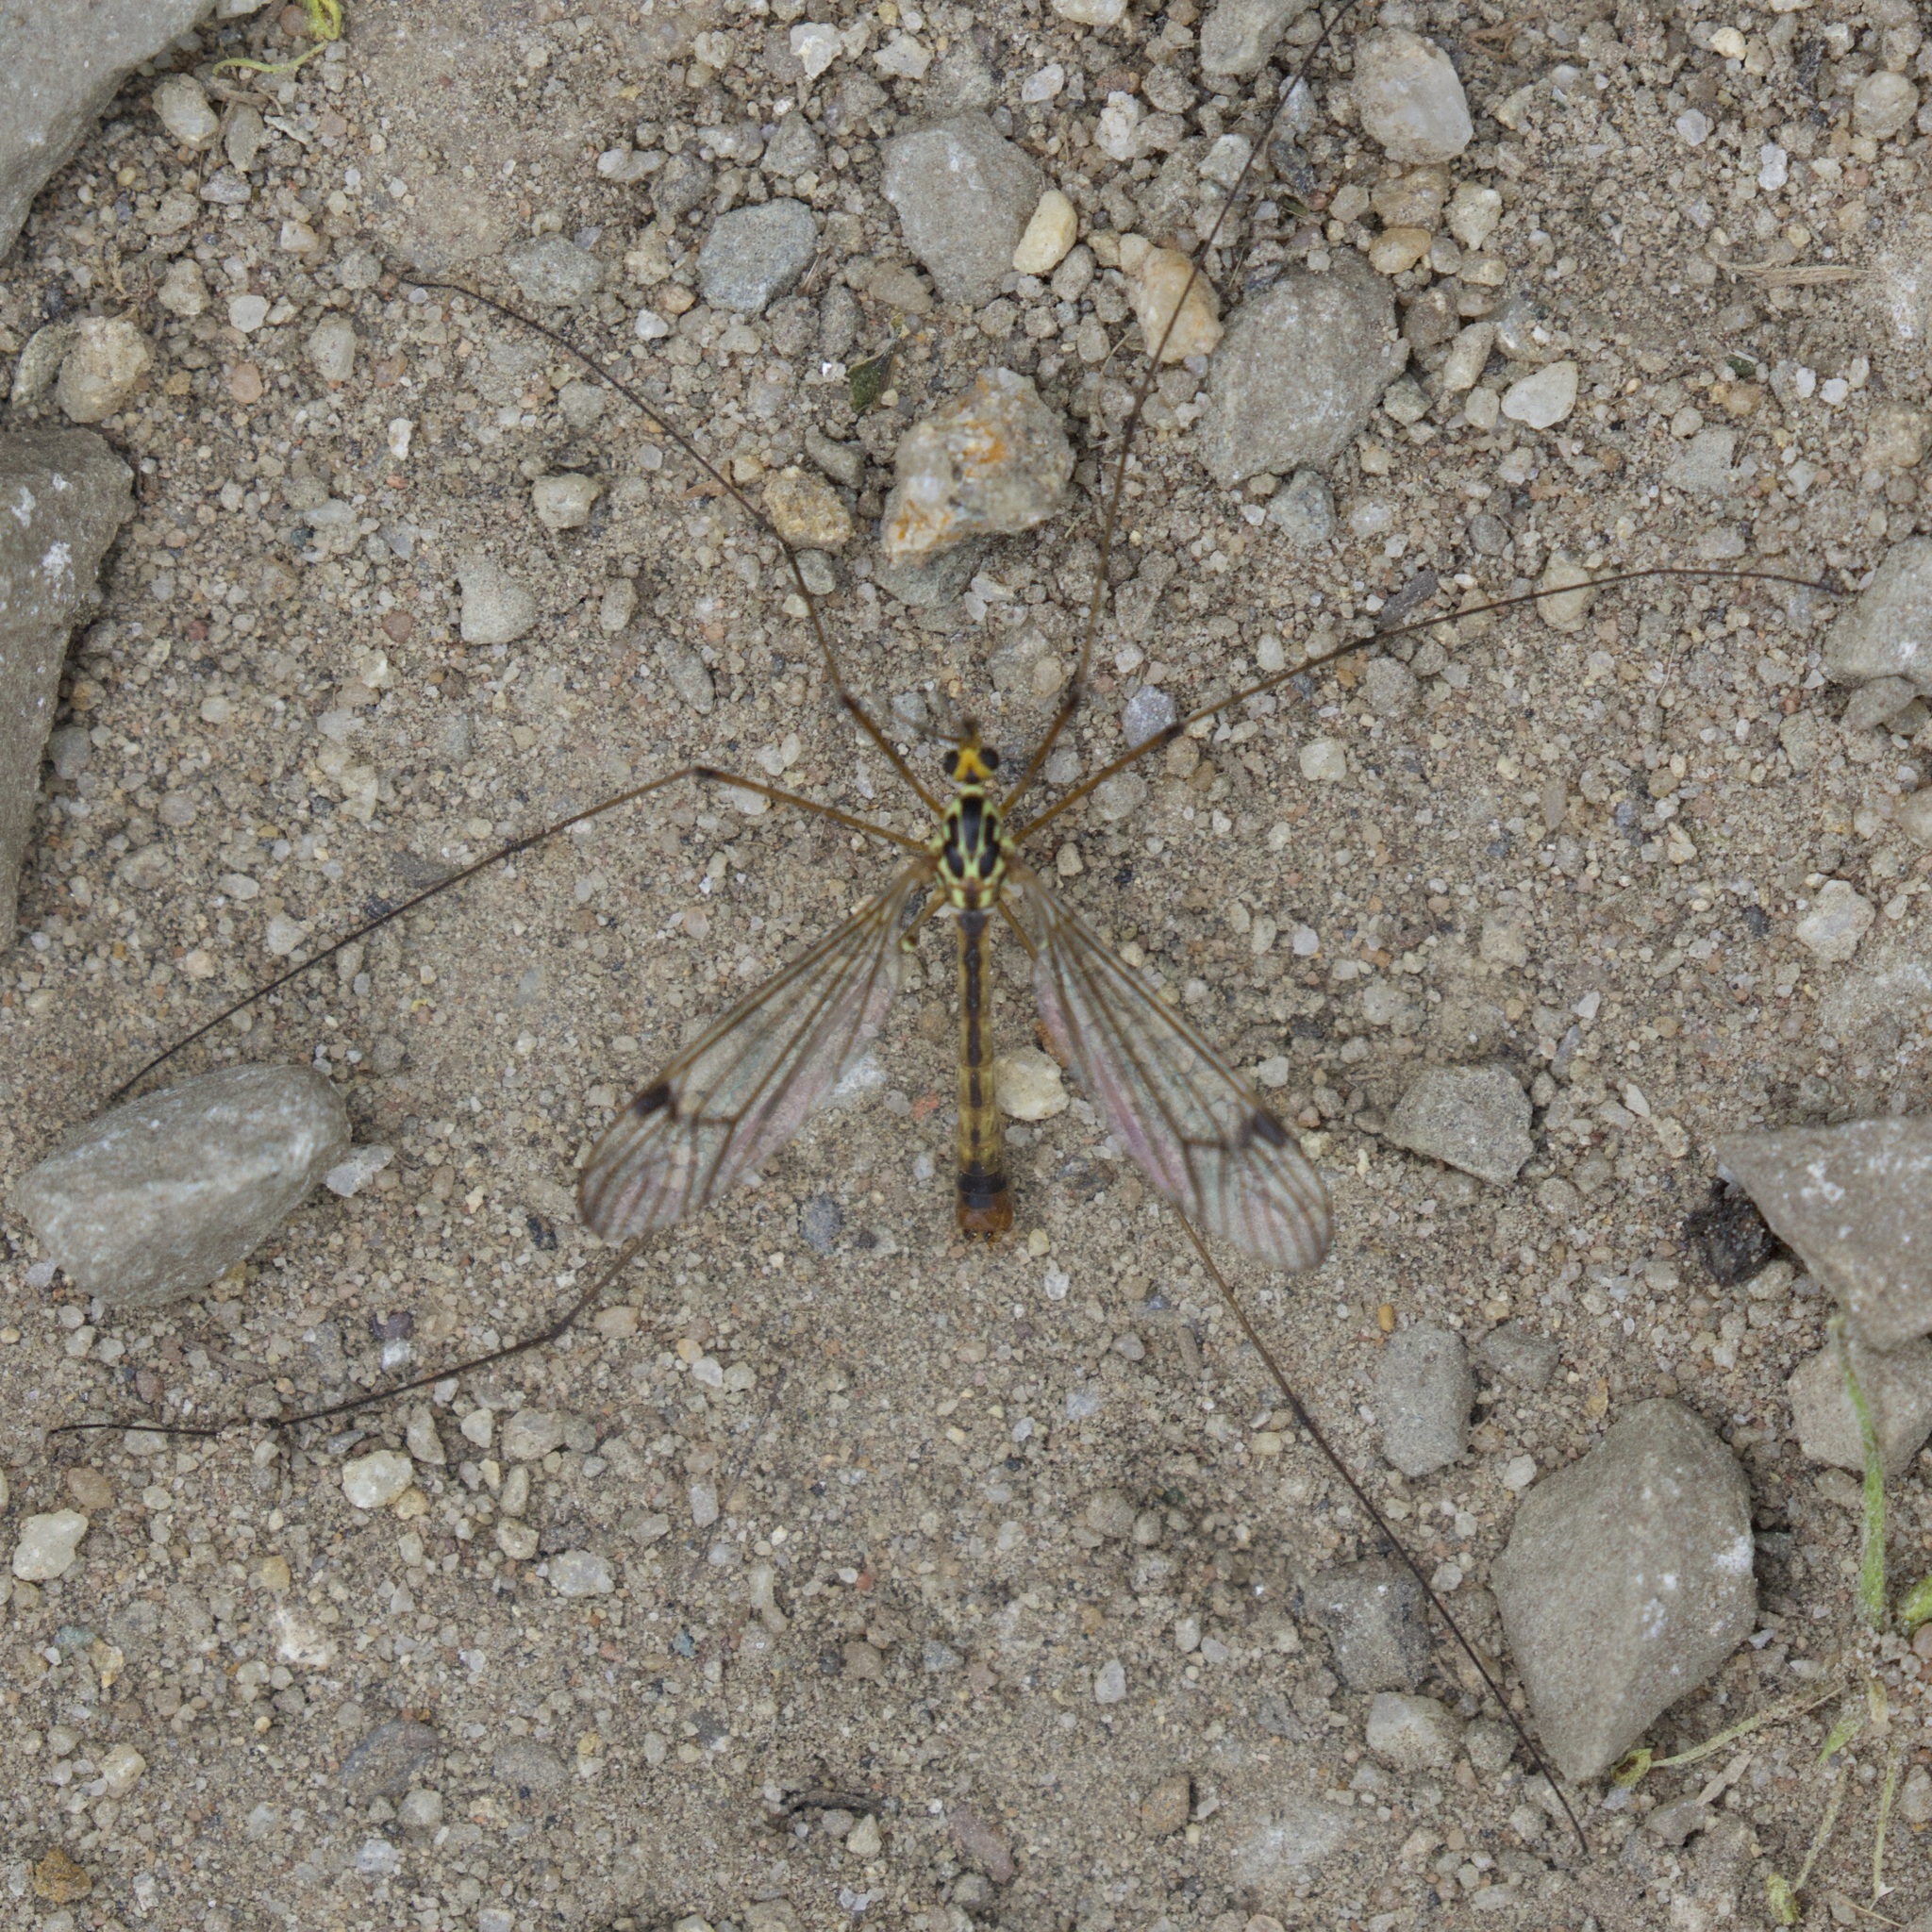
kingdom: Animalia
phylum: Arthropoda
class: Insecta
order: Diptera
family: Tipulidae
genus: Nephrotoma
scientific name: Nephrotoma quadrifaria
